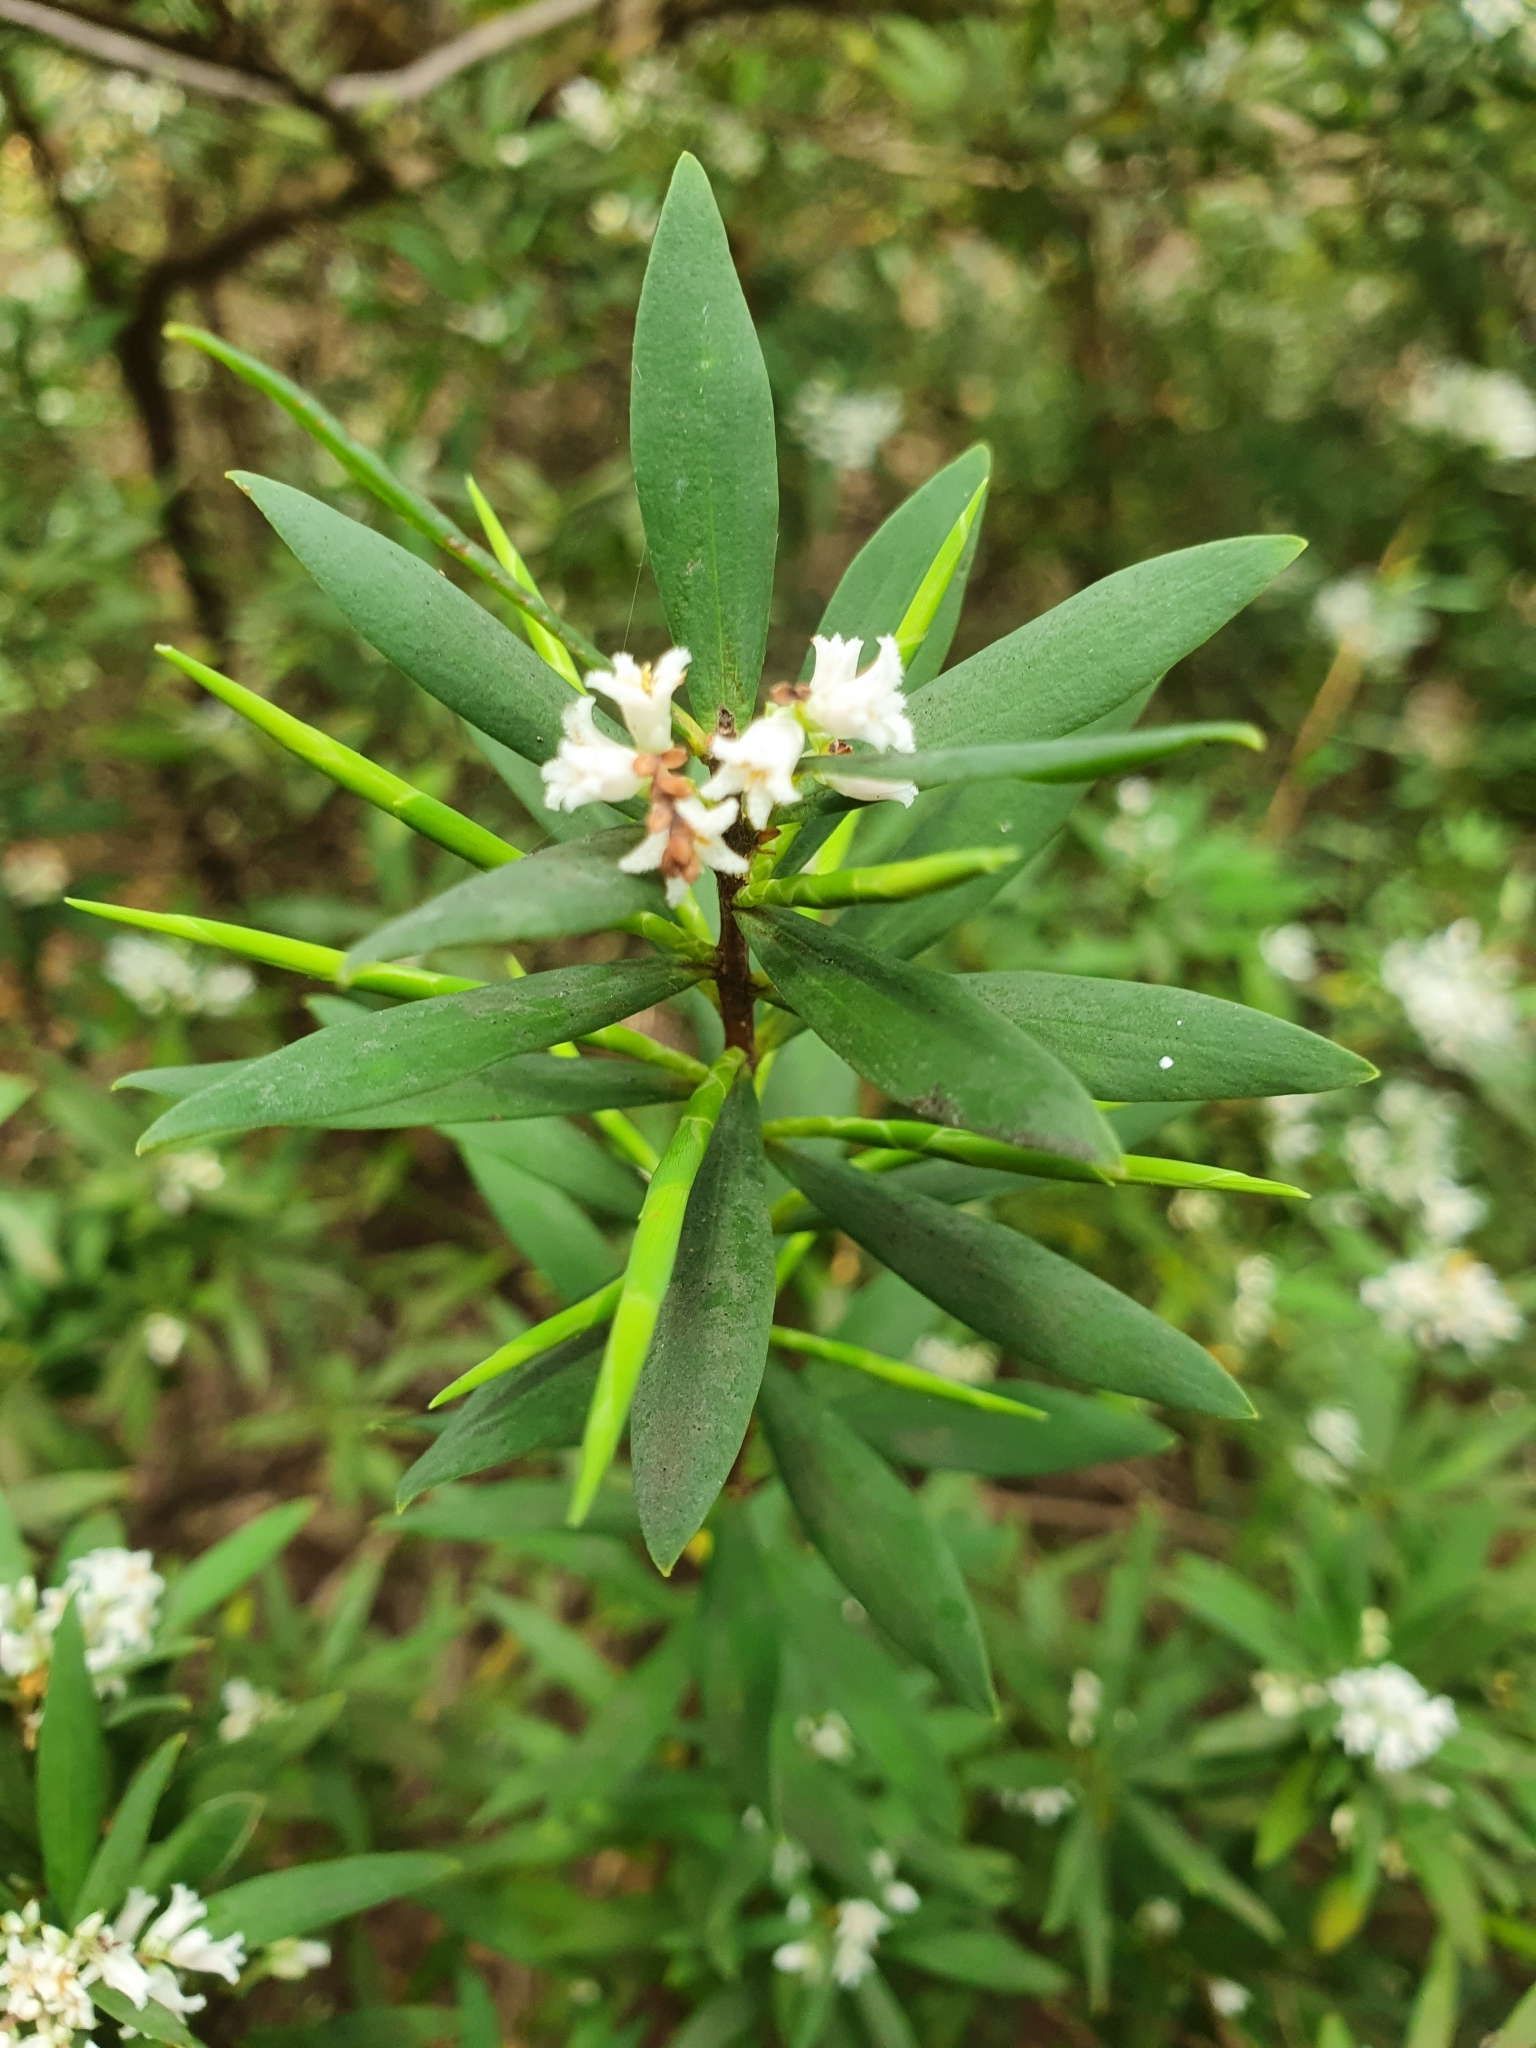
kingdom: Plantae
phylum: Tracheophyta
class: Magnoliopsida
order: Ericales
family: Ericaceae
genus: Leucopogon
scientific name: Leucopogon australis
